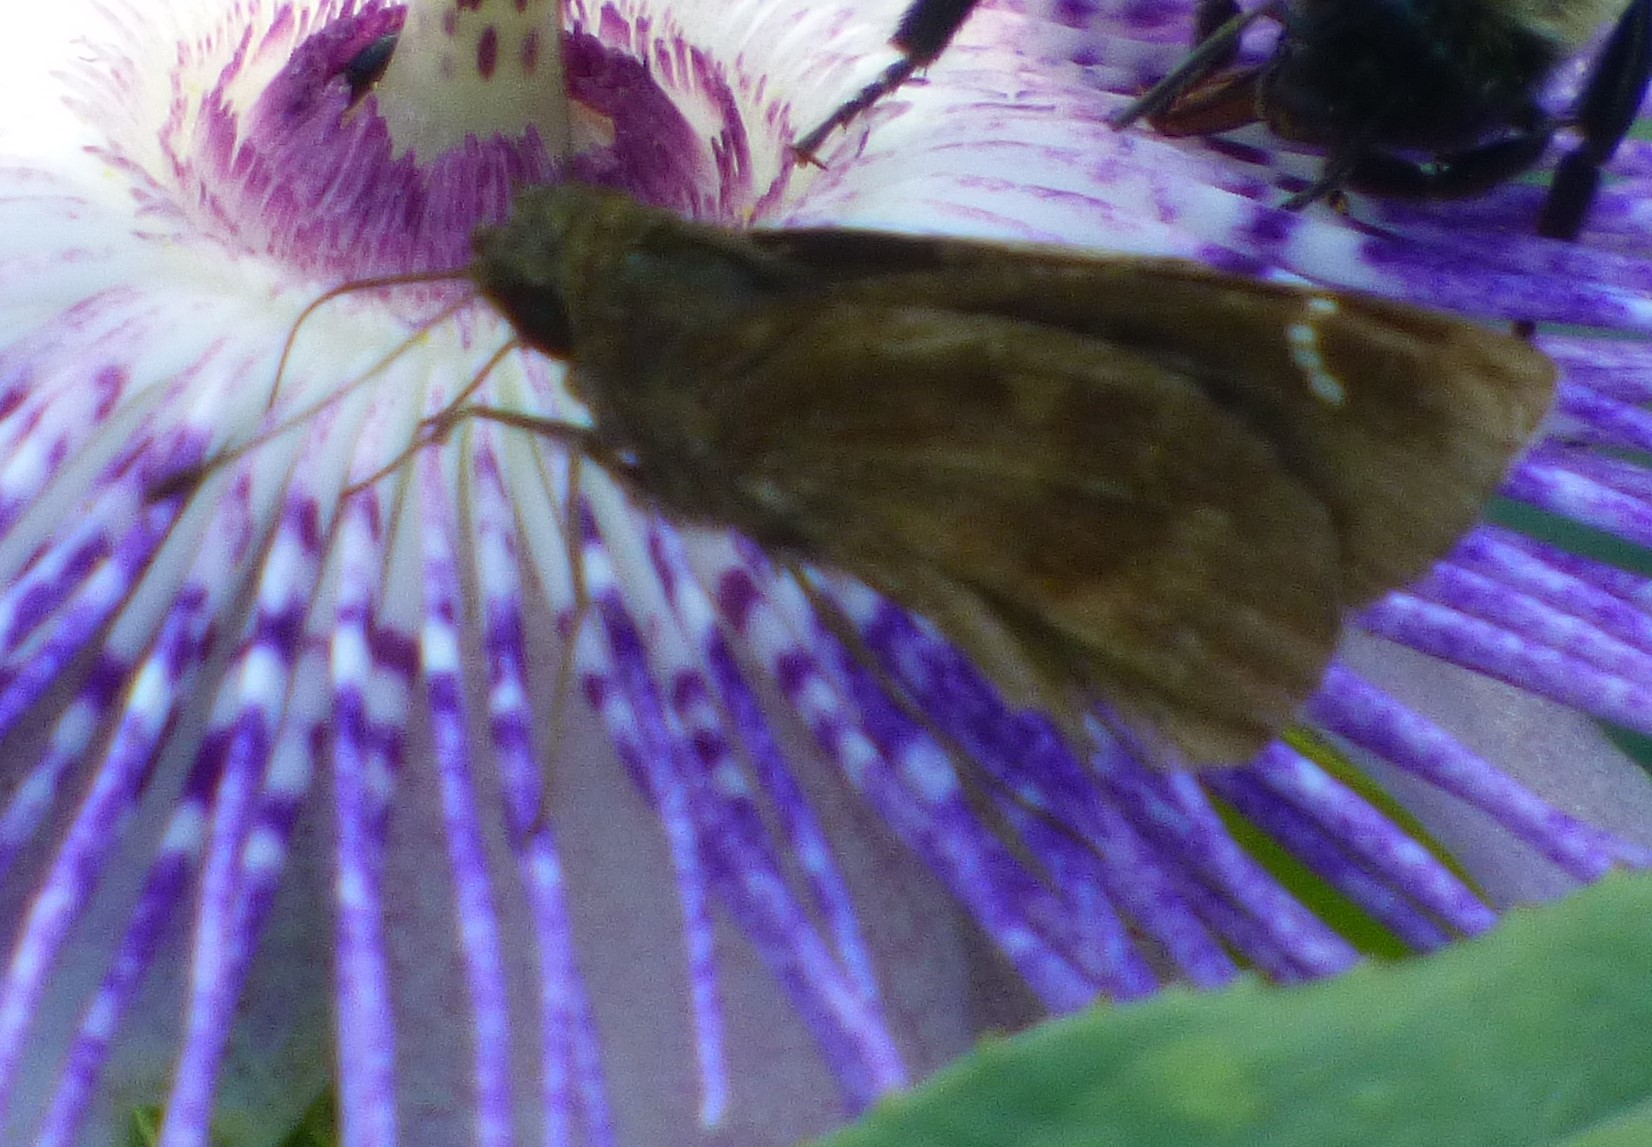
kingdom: Animalia
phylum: Arthropoda
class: Insecta
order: Lepidoptera
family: Hesperiidae
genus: Lerema
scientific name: Lerema accius
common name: Clouded skipper
